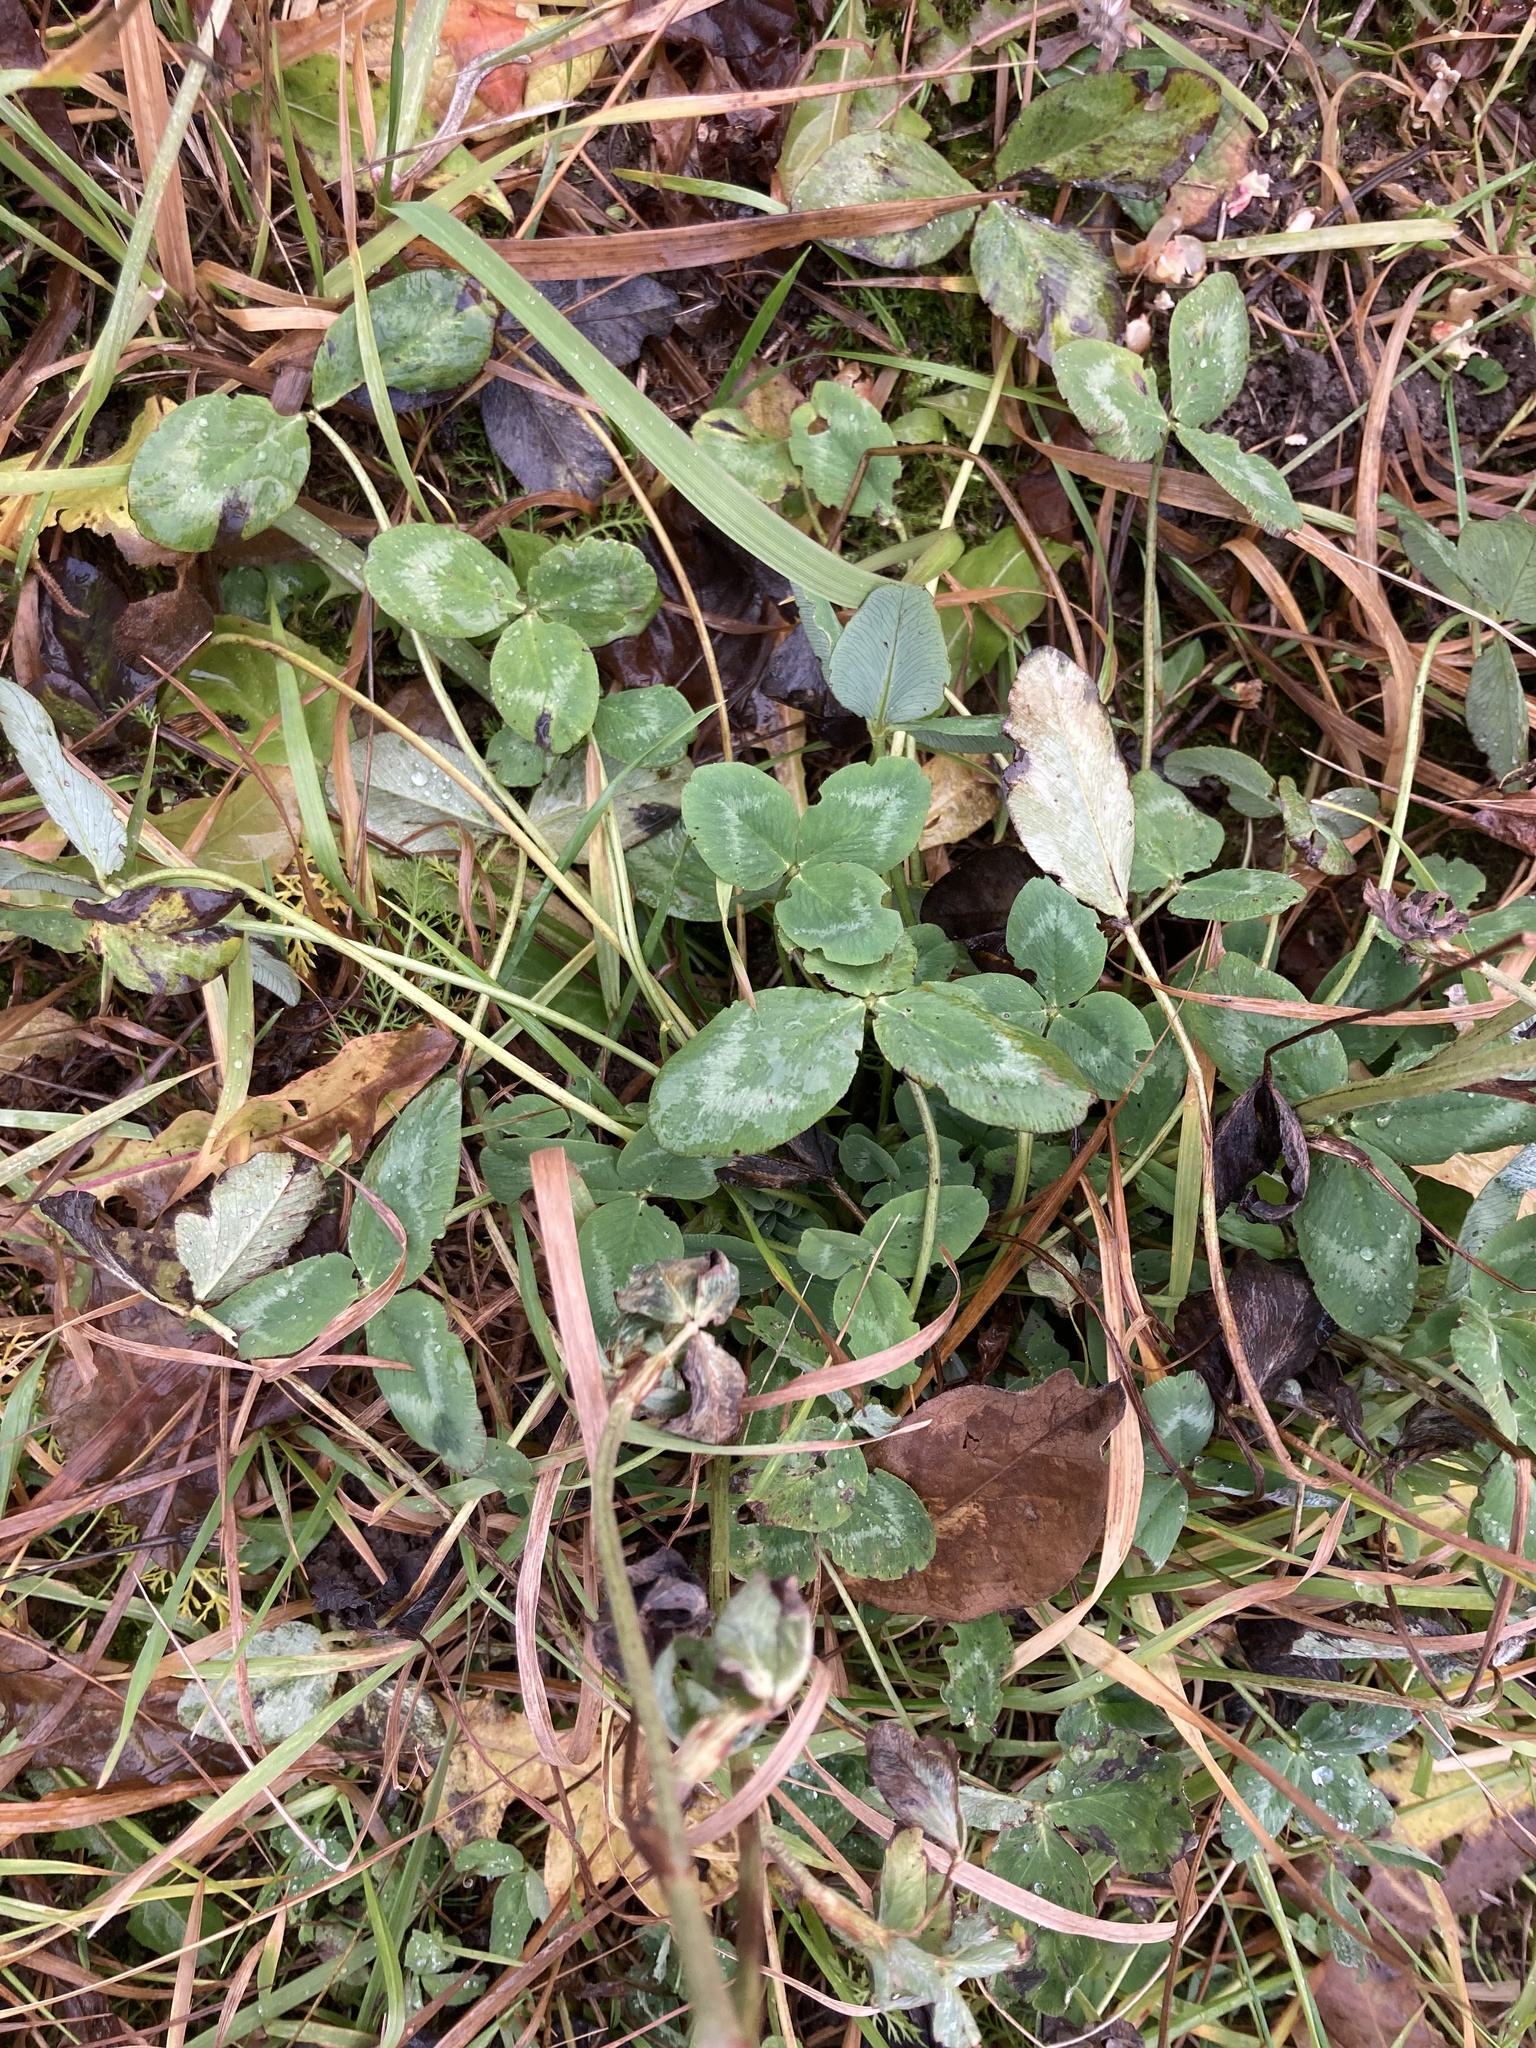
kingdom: Plantae
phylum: Tracheophyta
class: Magnoliopsida
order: Fabales
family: Fabaceae
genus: Trifolium
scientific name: Trifolium repens
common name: White clover
